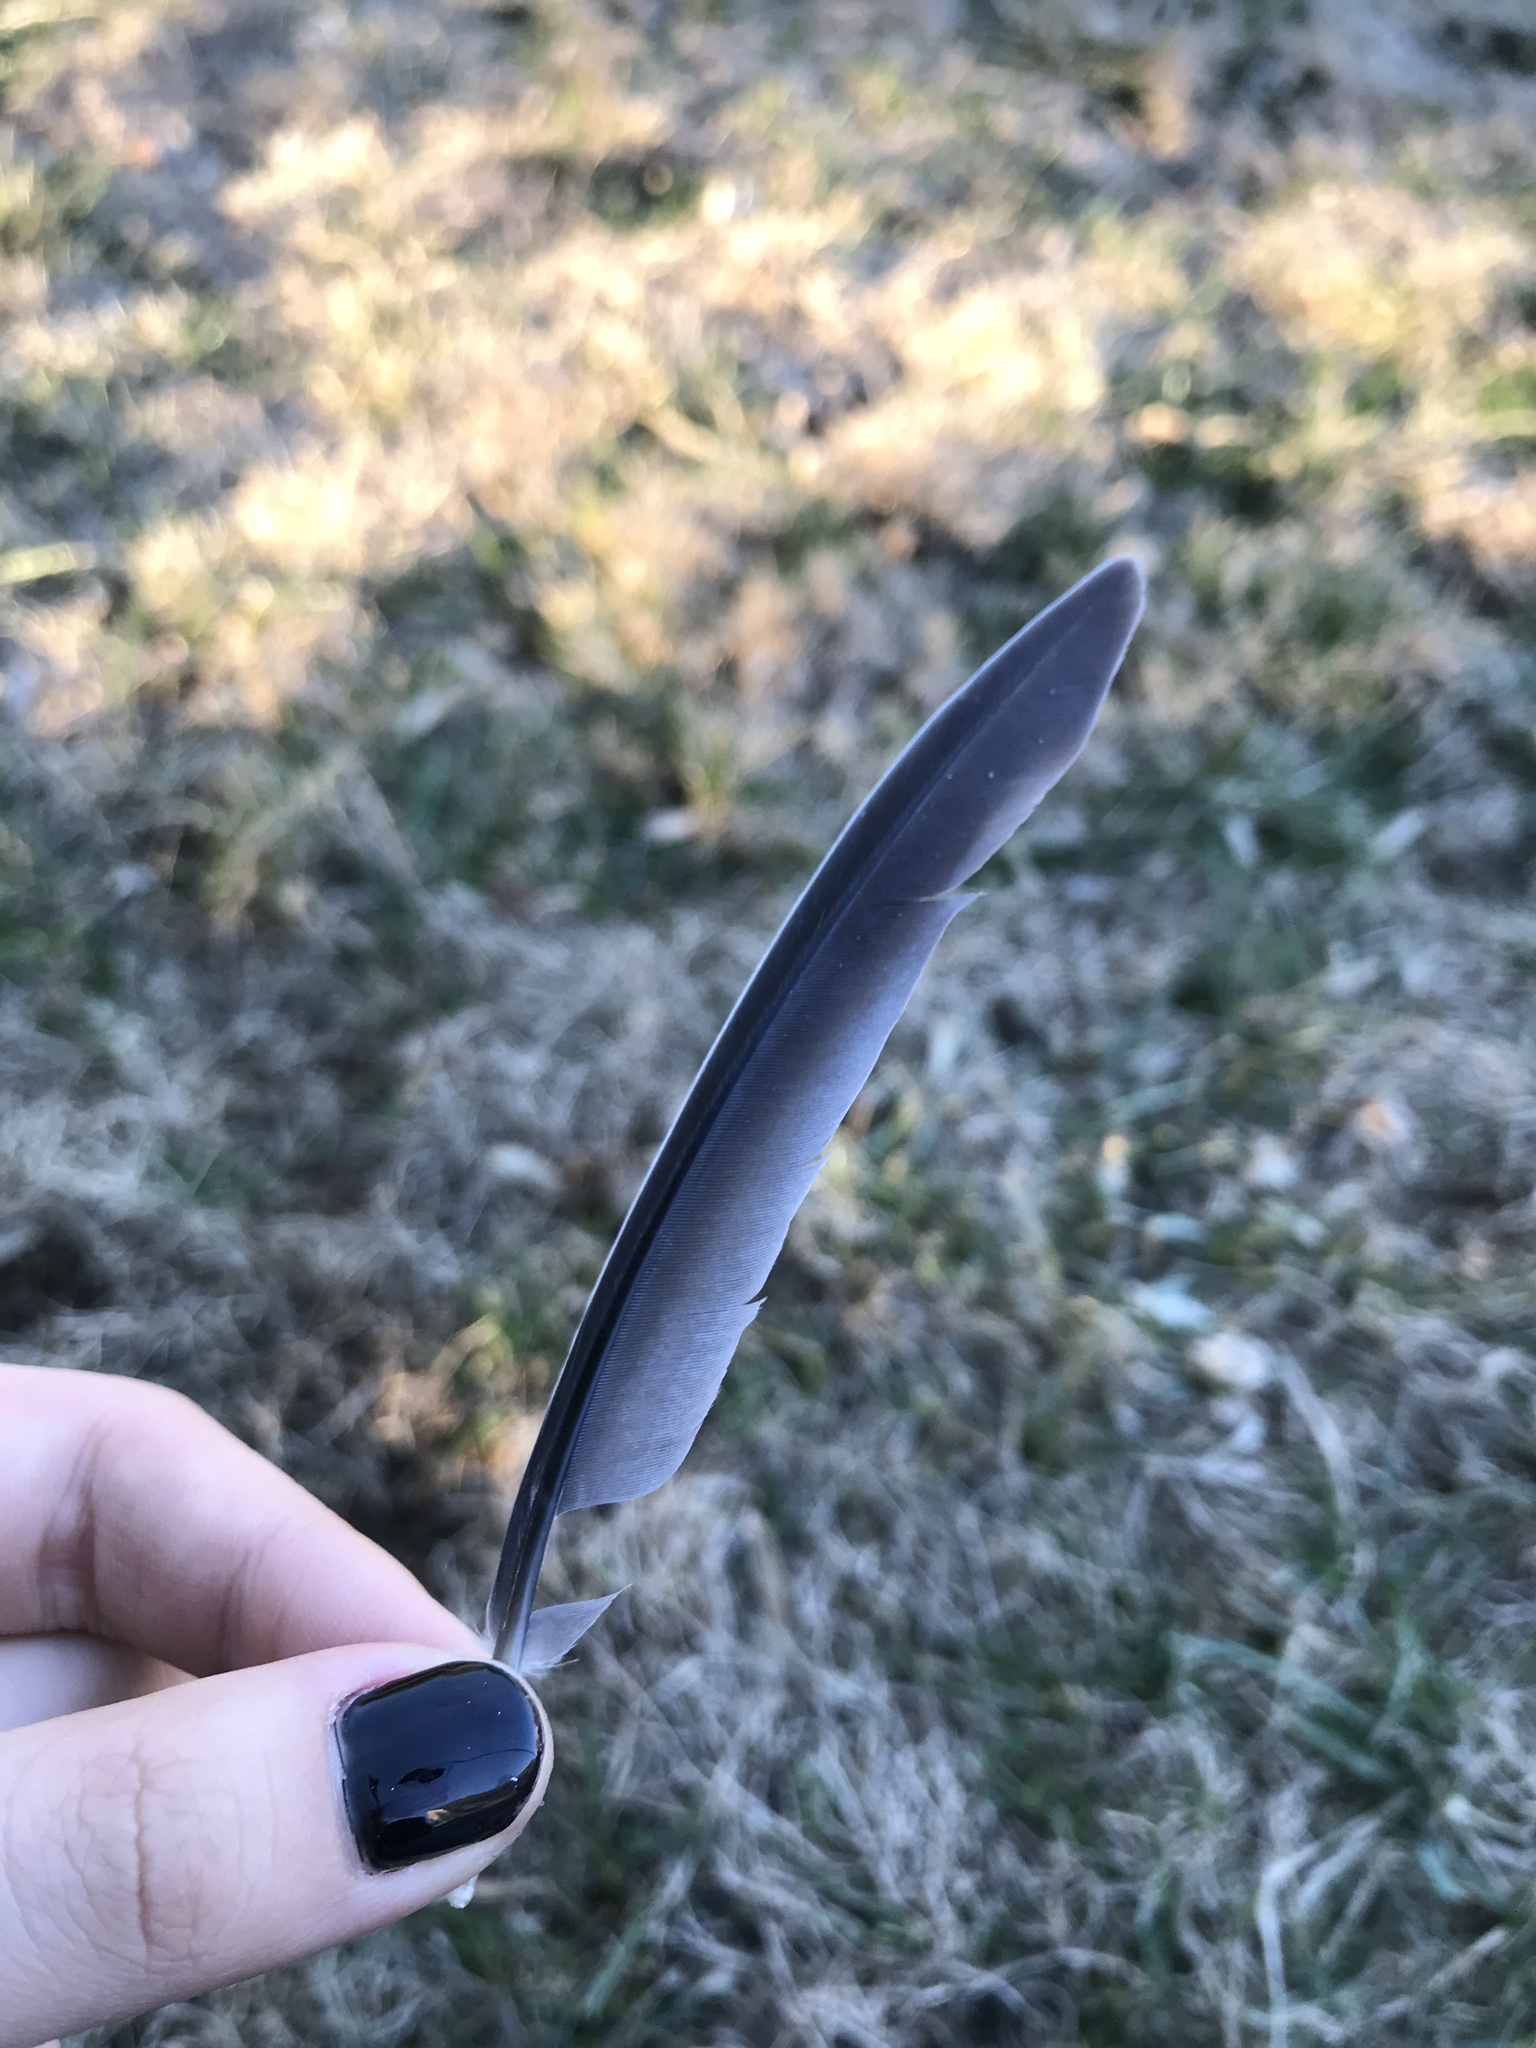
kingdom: Animalia
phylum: Chordata
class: Aves
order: Columbiformes
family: Columbidae
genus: Zenaida
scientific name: Zenaida macroura
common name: Mourning dove
